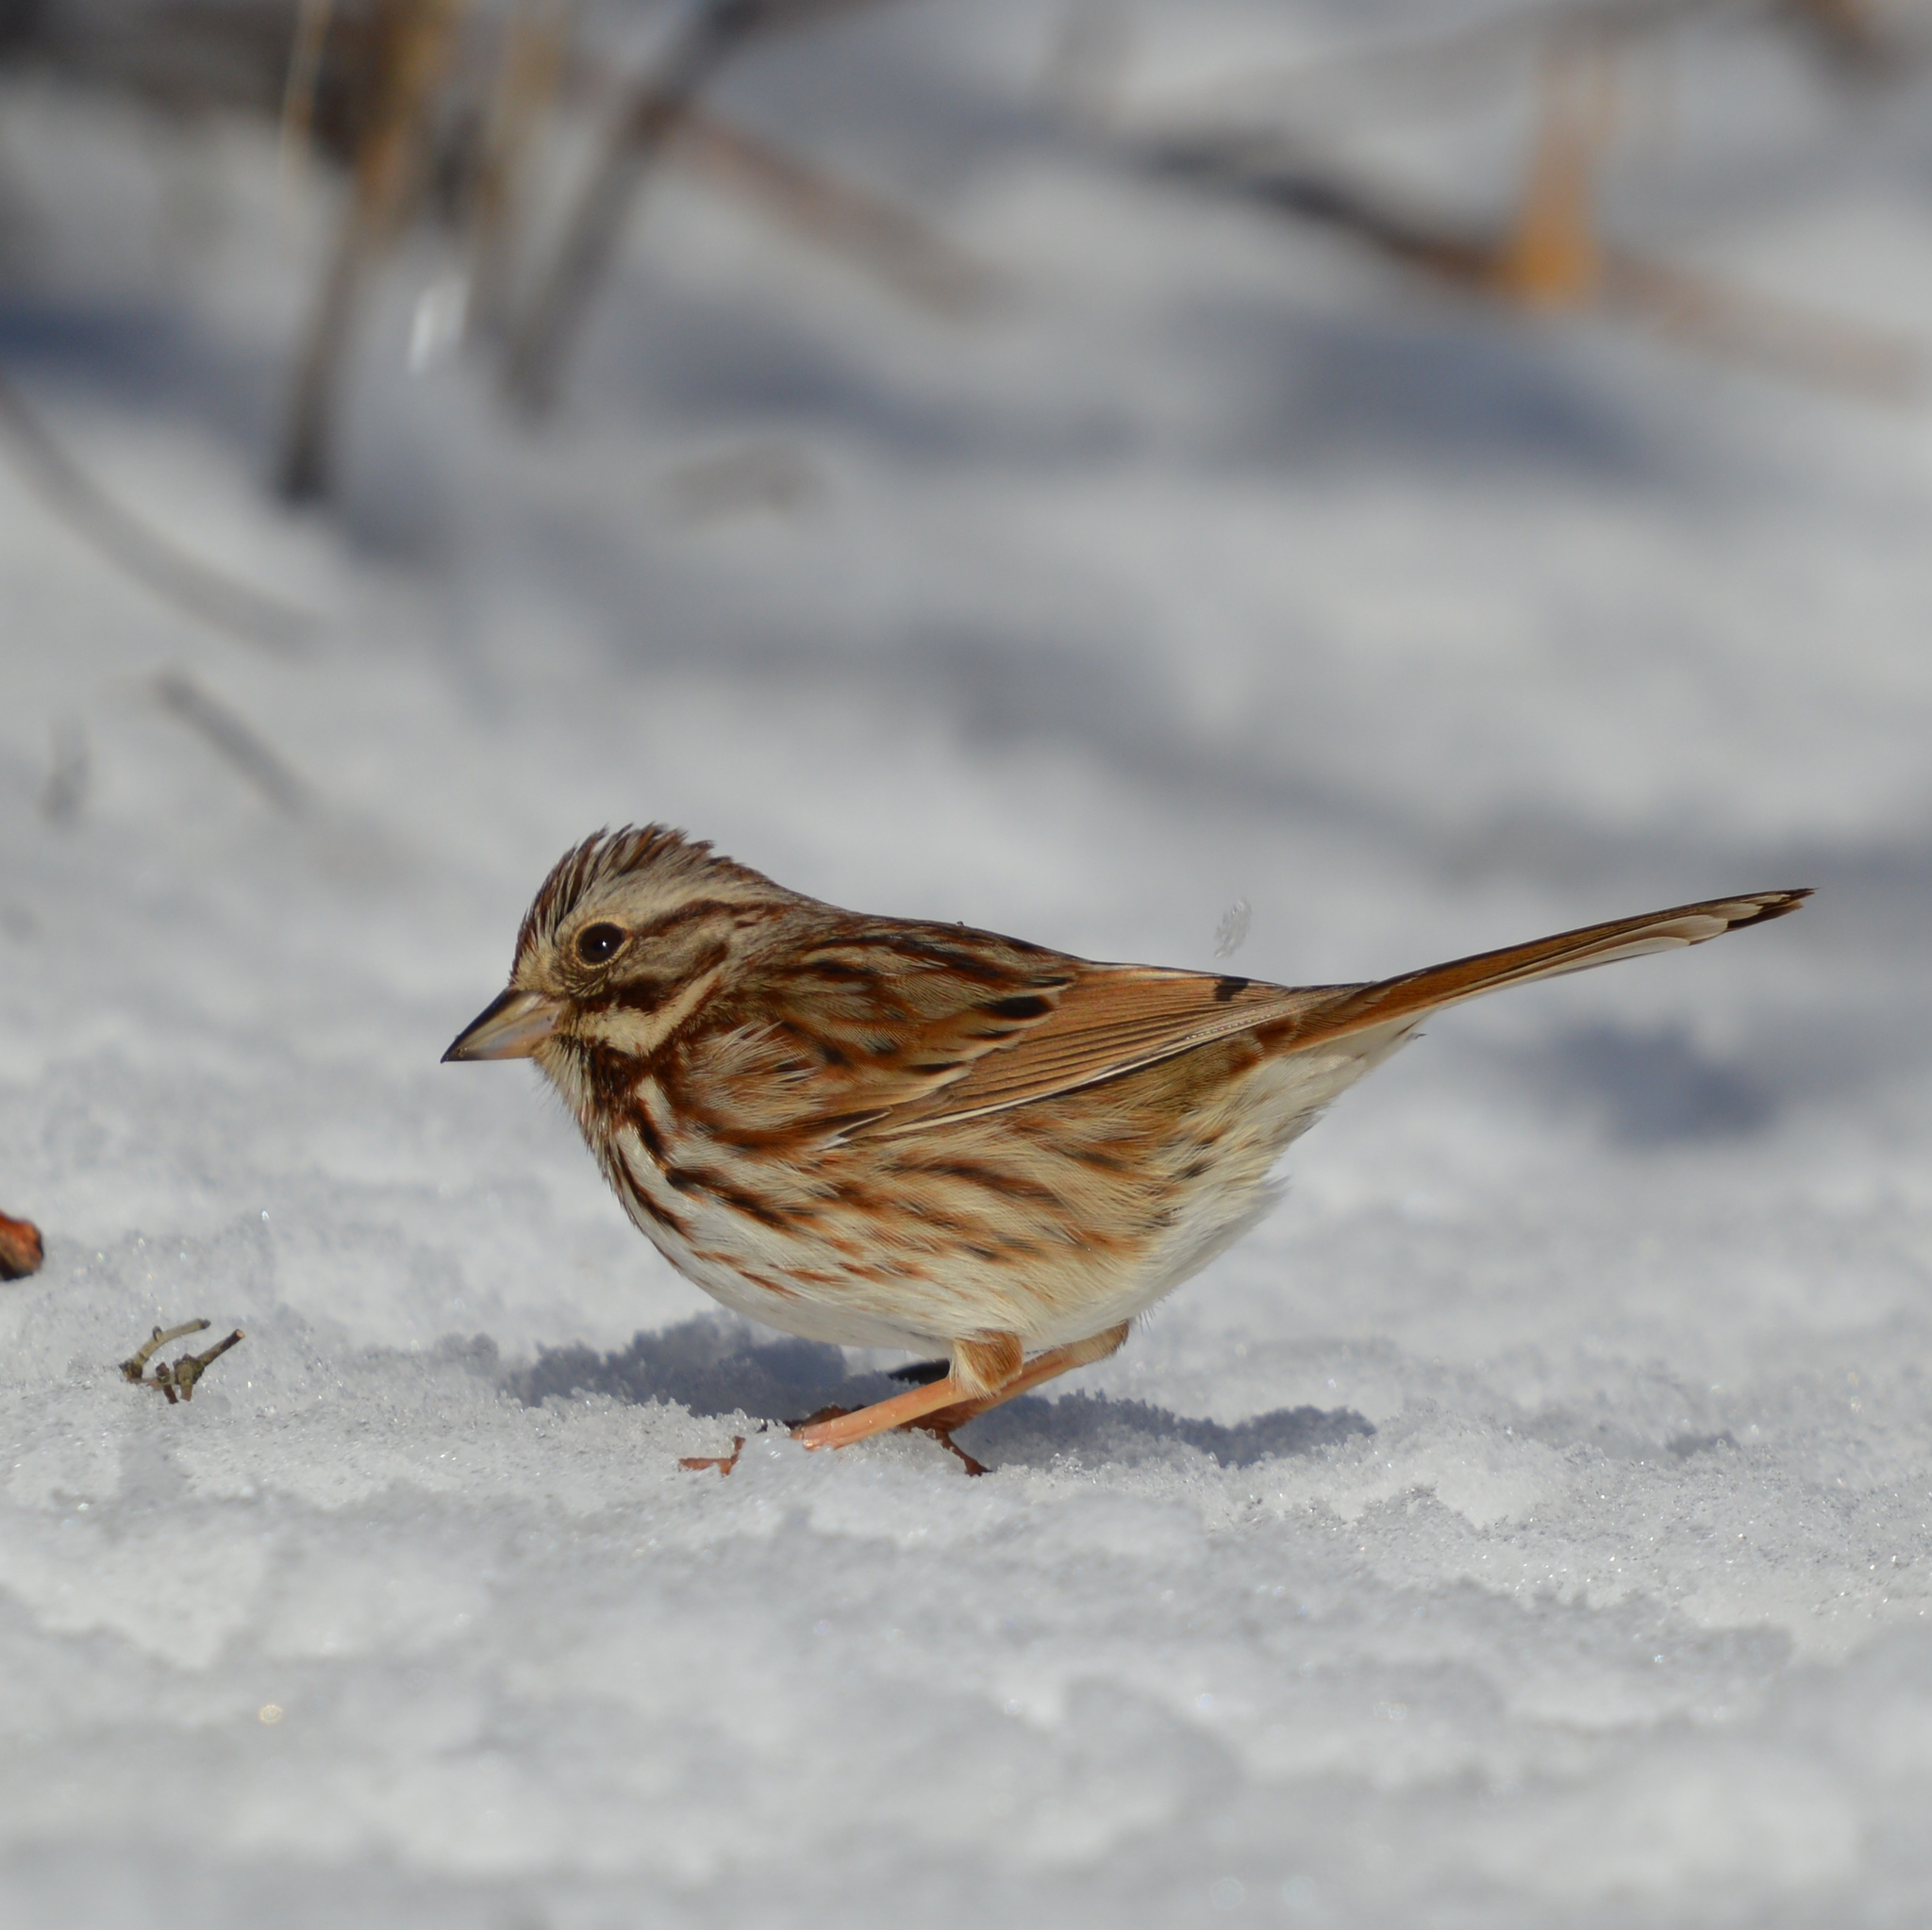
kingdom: Animalia
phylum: Chordata
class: Aves
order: Passeriformes
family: Passerellidae
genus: Melospiza
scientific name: Melospiza melodia
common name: Song sparrow
